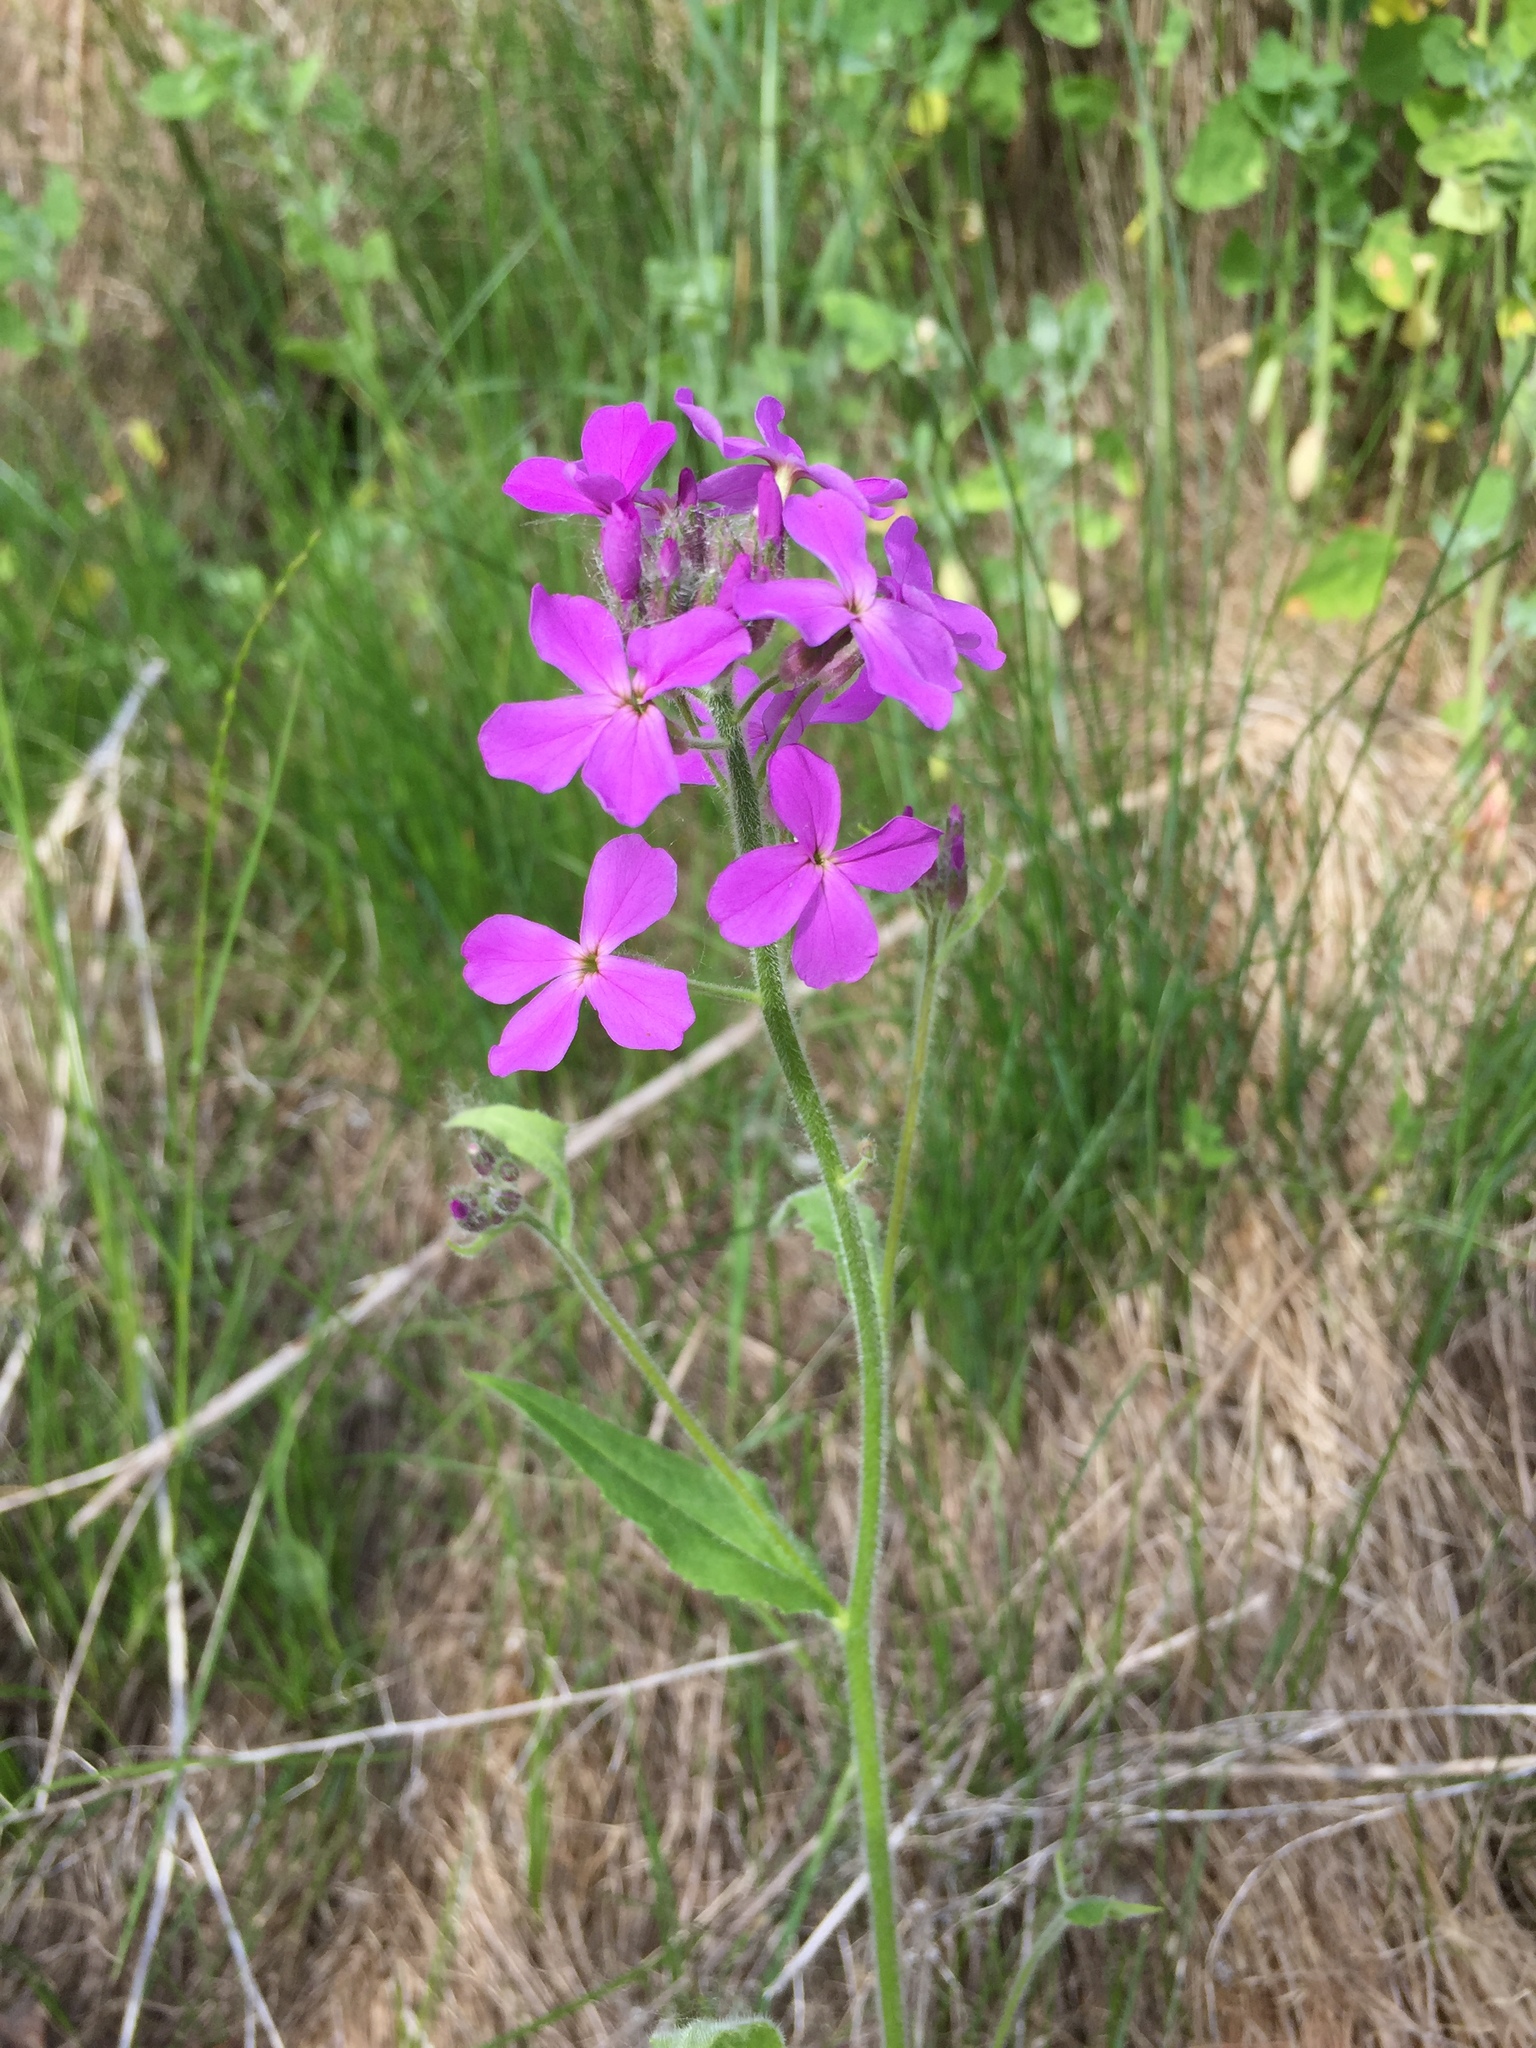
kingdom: Plantae
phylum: Tracheophyta
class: Magnoliopsida
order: Brassicales
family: Brassicaceae
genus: Hesperis
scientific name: Hesperis matronalis
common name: Dame's-violet
